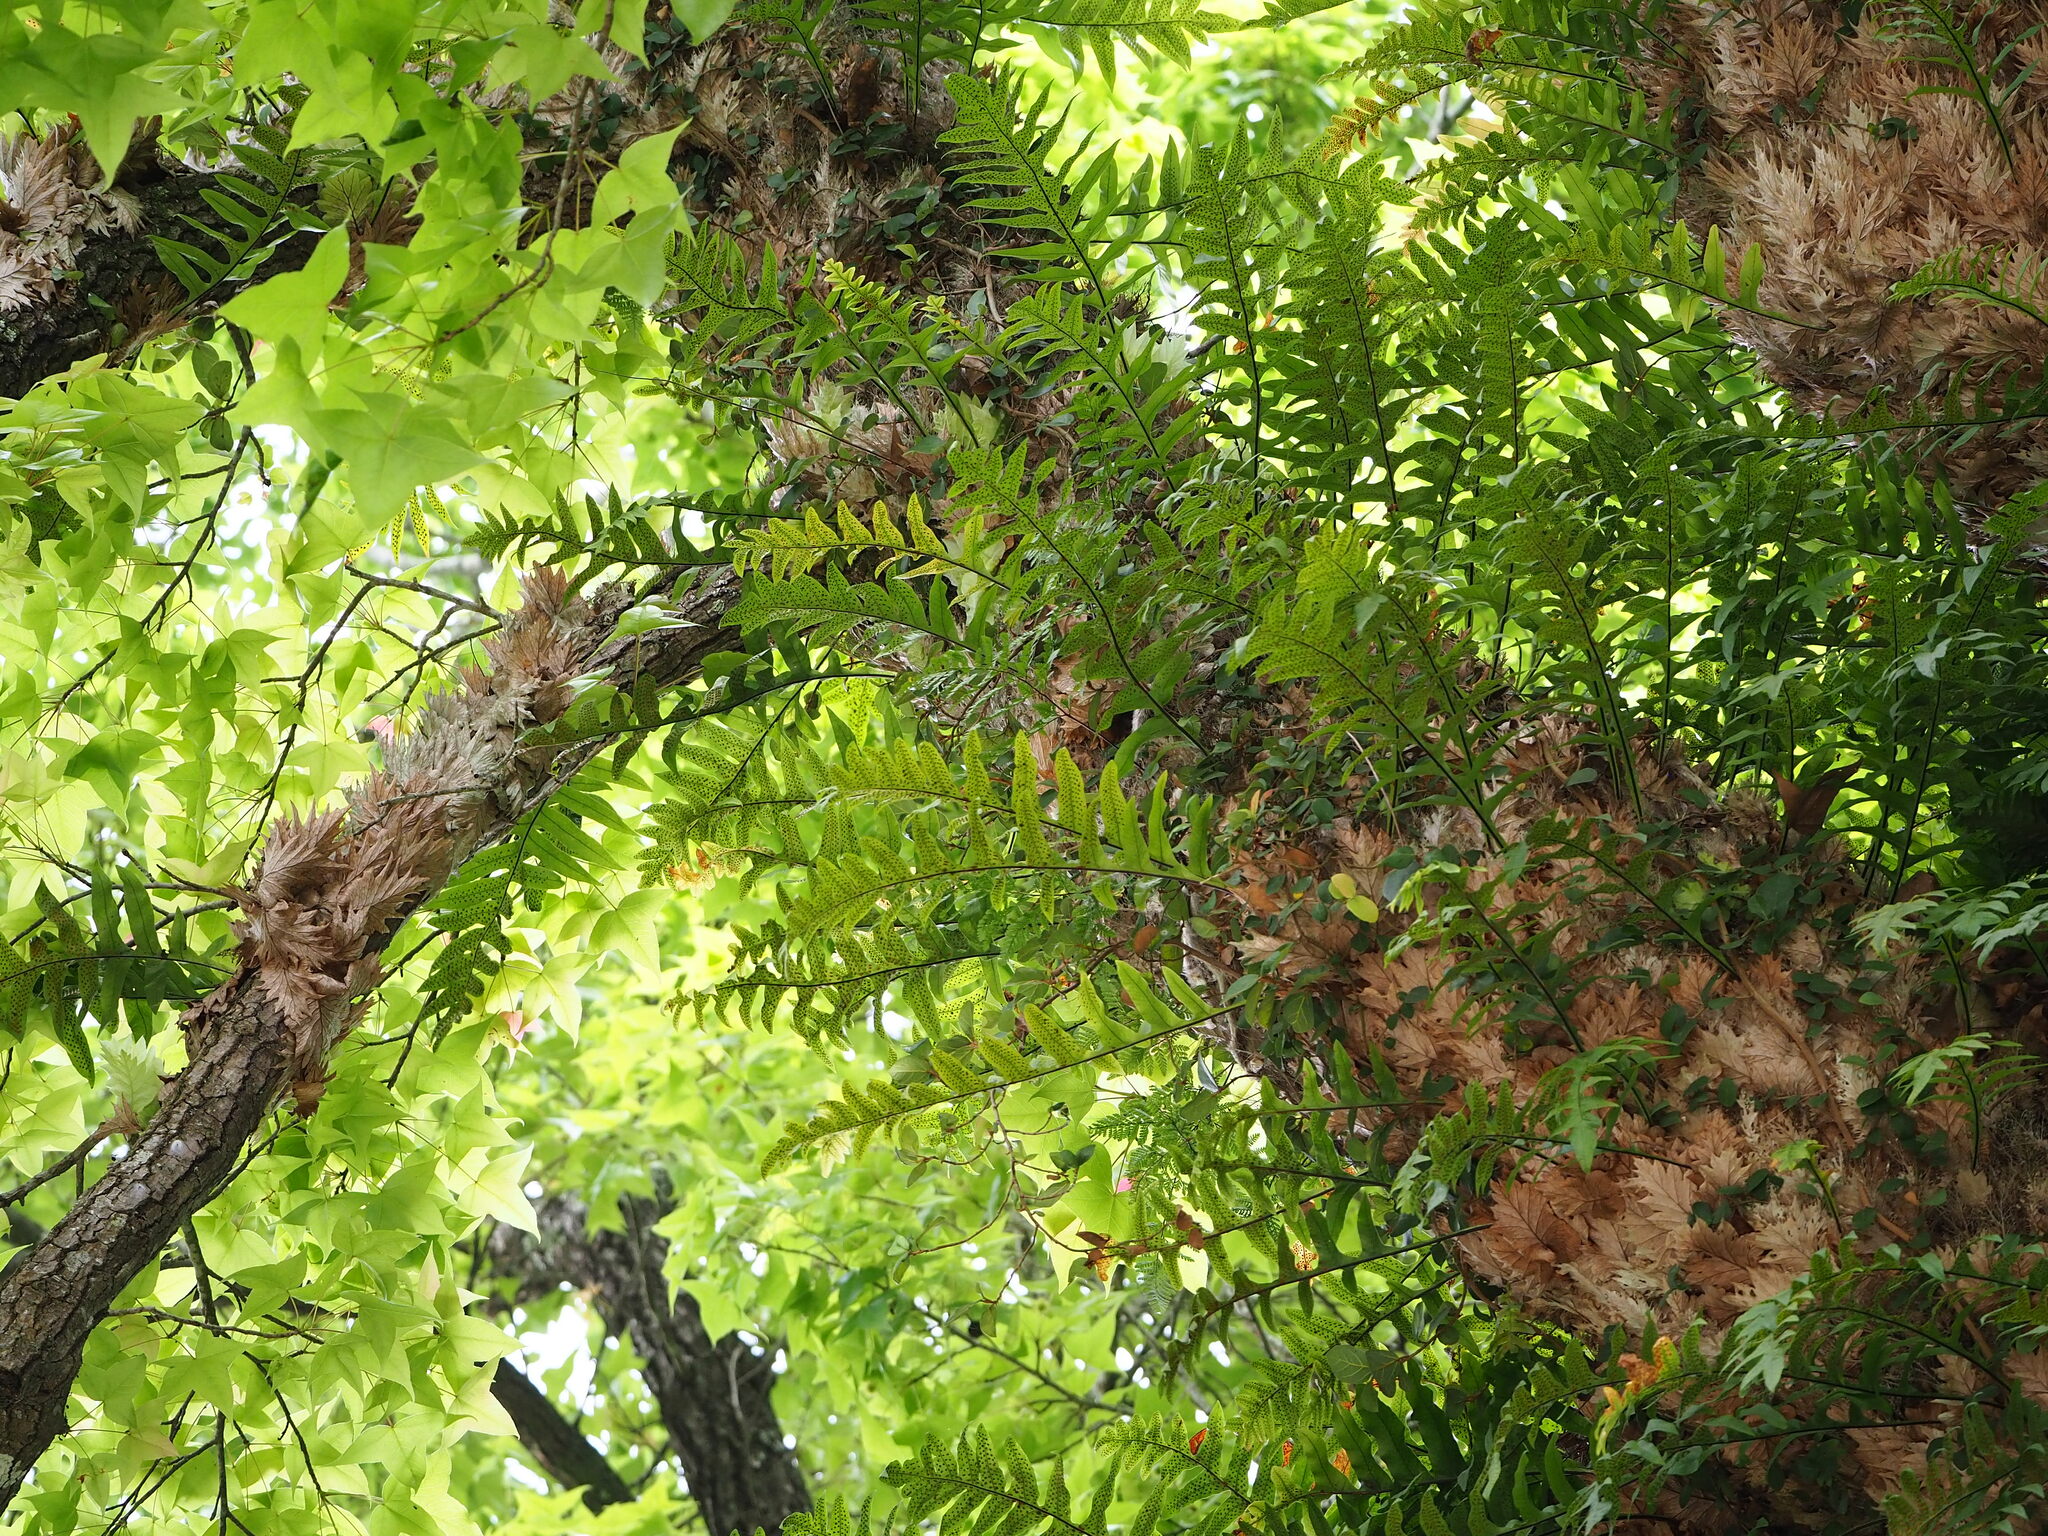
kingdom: Plantae
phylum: Tracheophyta
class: Polypodiopsida
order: Polypodiales
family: Polypodiaceae
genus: Drynaria
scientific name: Drynaria roosii
